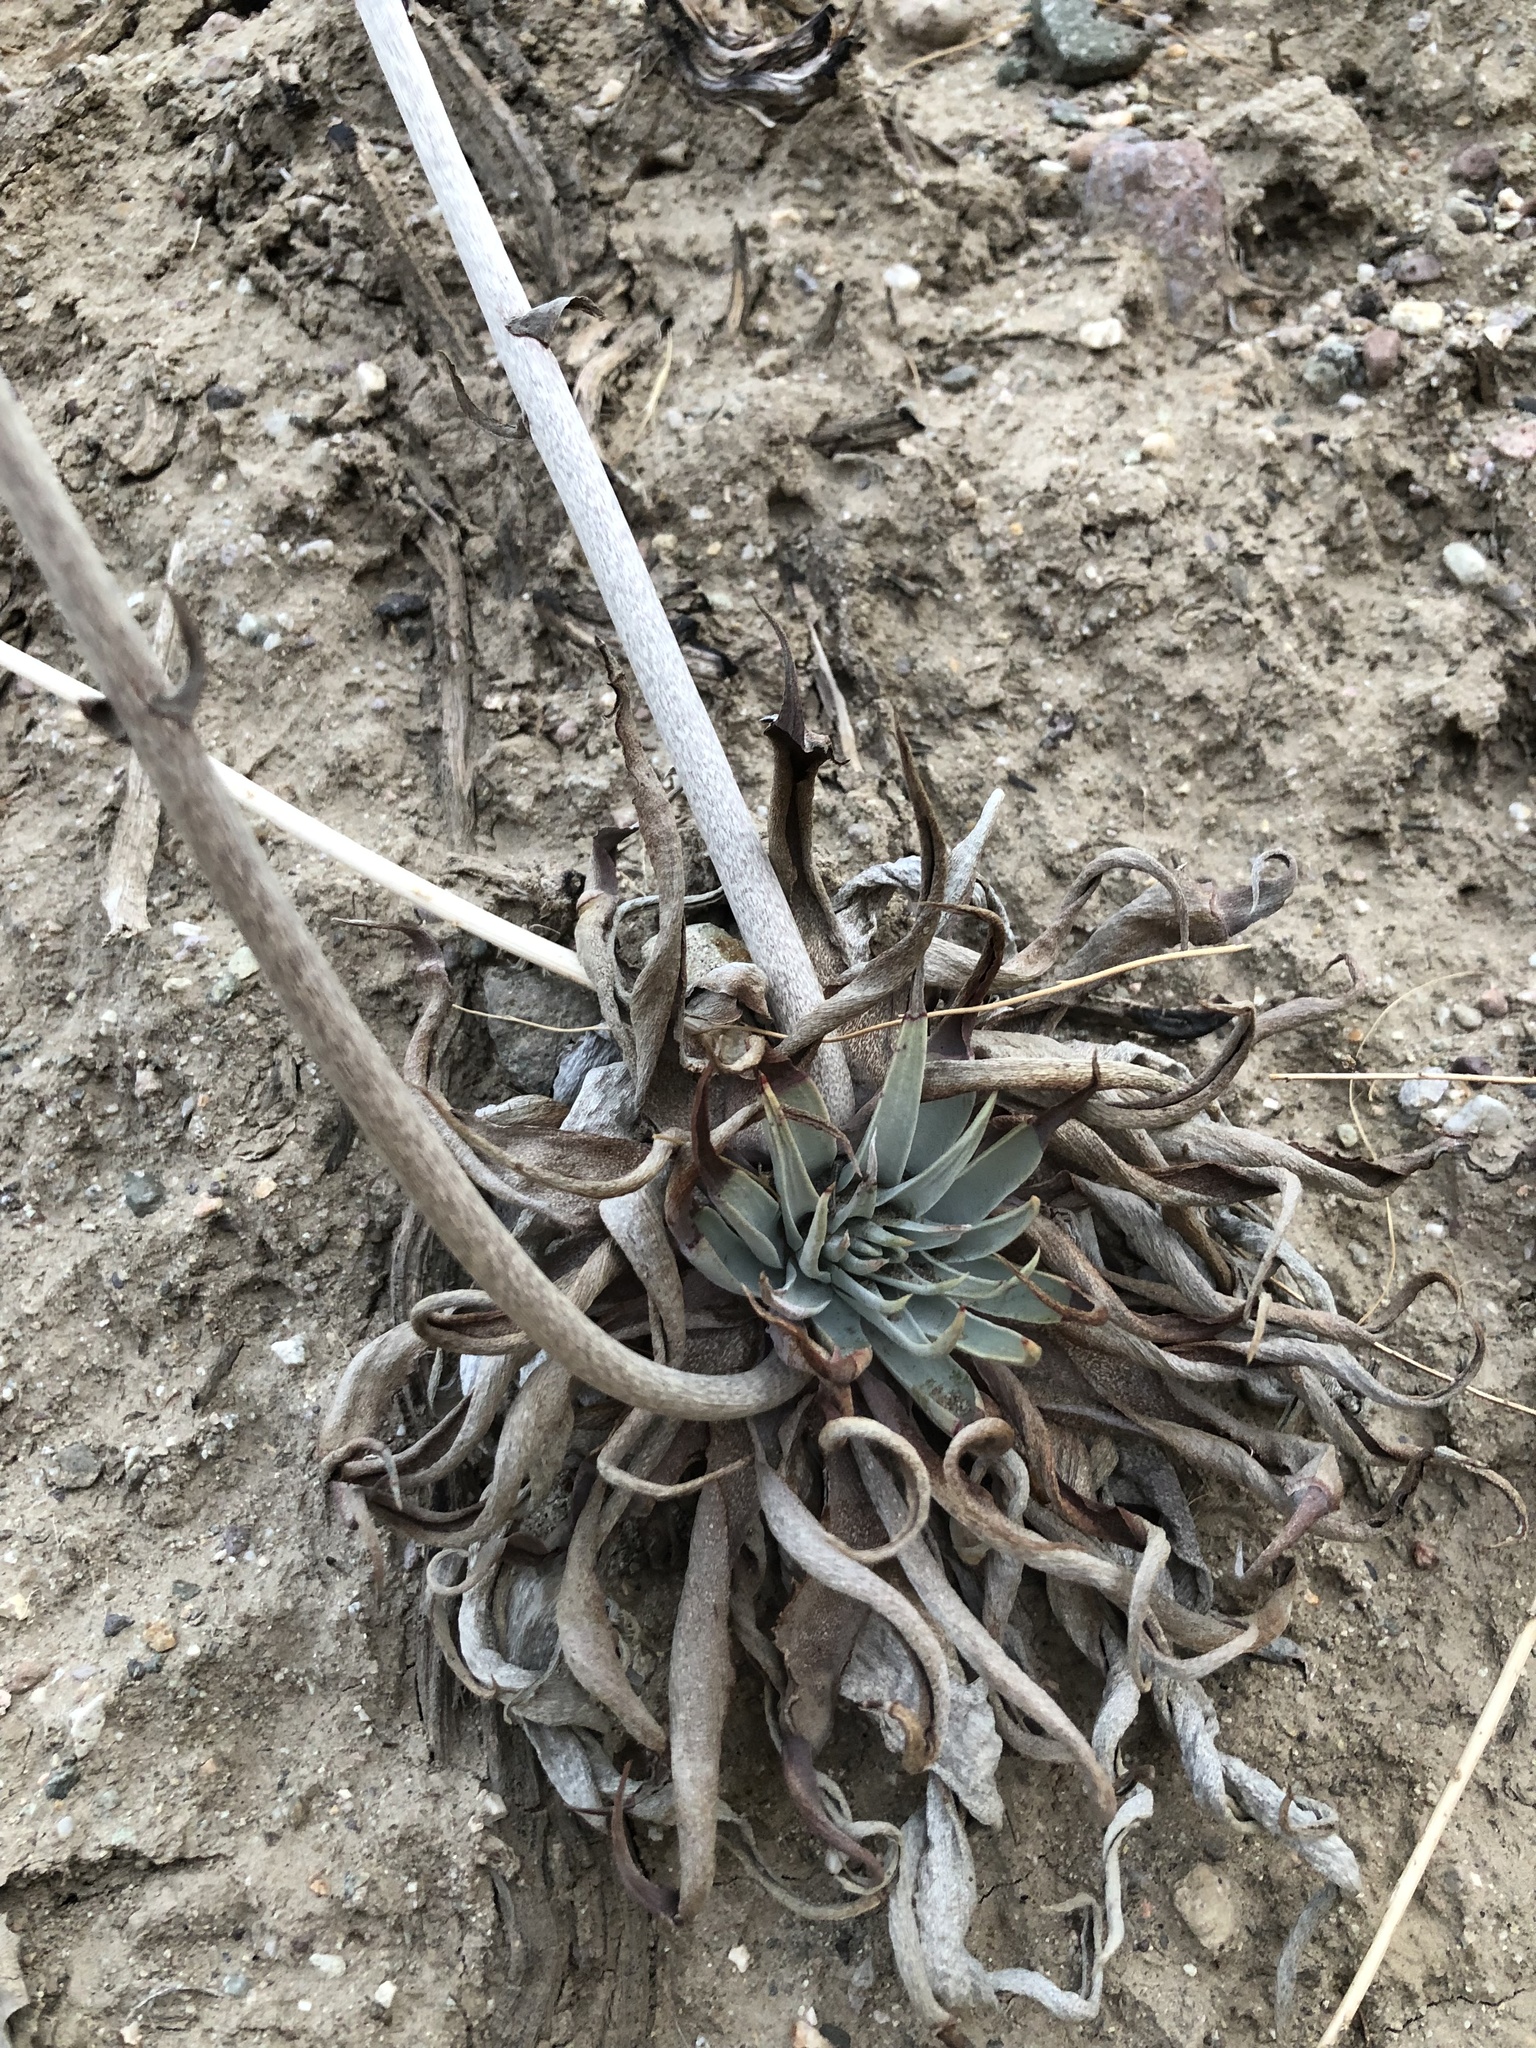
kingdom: Plantae
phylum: Tracheophyta
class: Magnoliopsida
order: Saxifragales
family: Crassulaceae
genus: Dudleya
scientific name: Dudleya lanceolata
